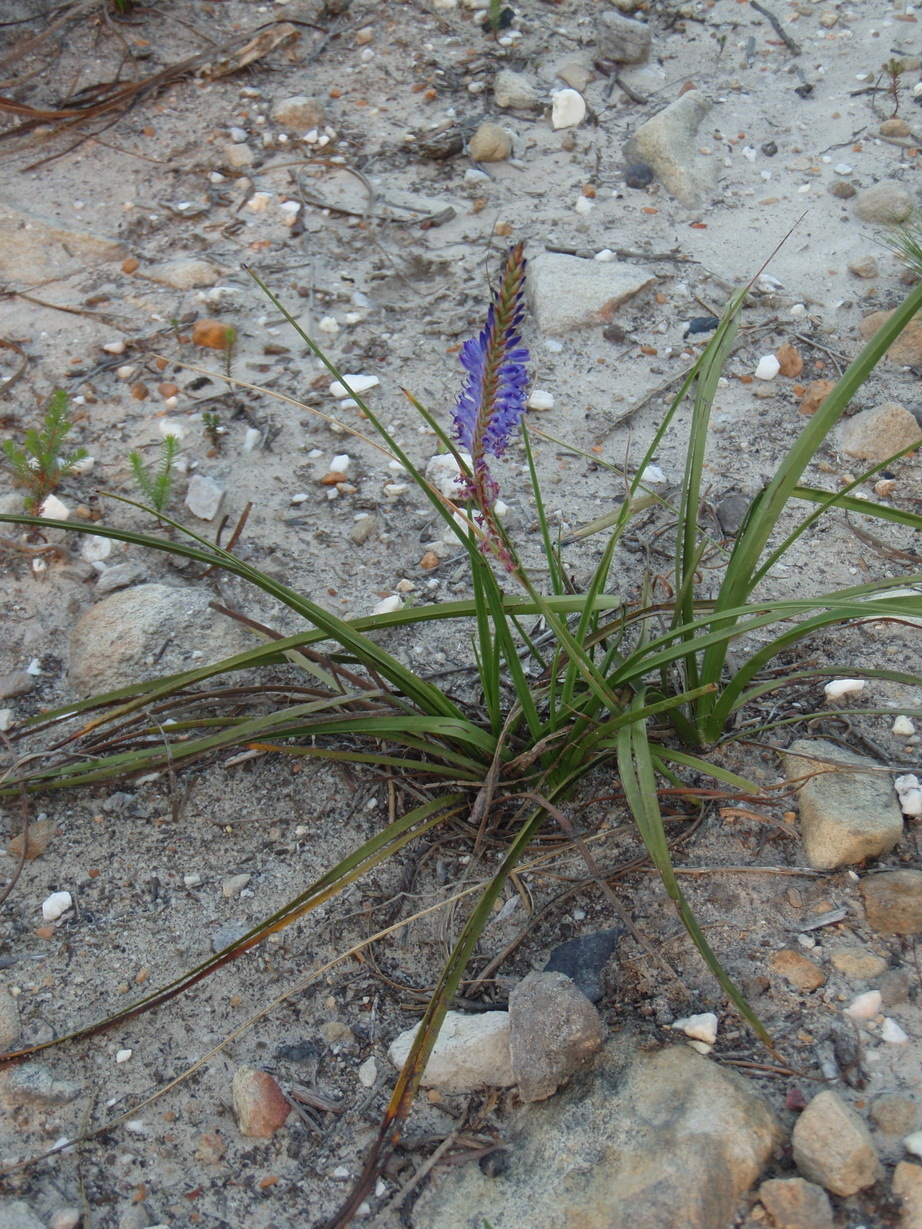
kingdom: Plantae
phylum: Tracheophyta
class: Liliopsida
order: Asparagales
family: Iridaceae
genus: Micranthus
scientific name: Micranthus alopecuroides
